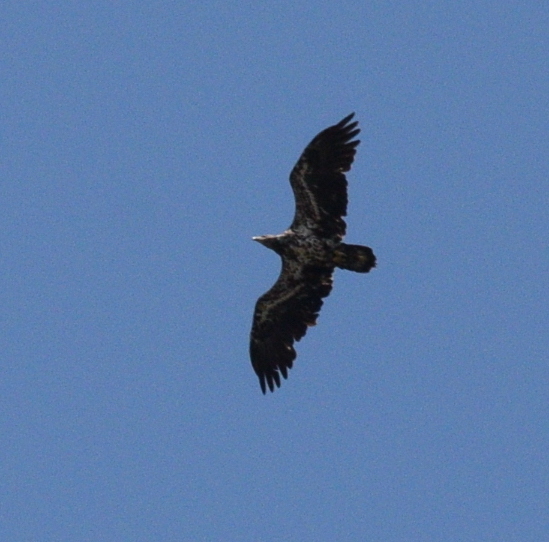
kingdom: Animalia
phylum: Chordata
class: Aves
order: Accipitriformes
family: Accipitridae
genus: Haliaeetus
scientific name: Haliaeetus leucocephalus
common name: Bald eagle
